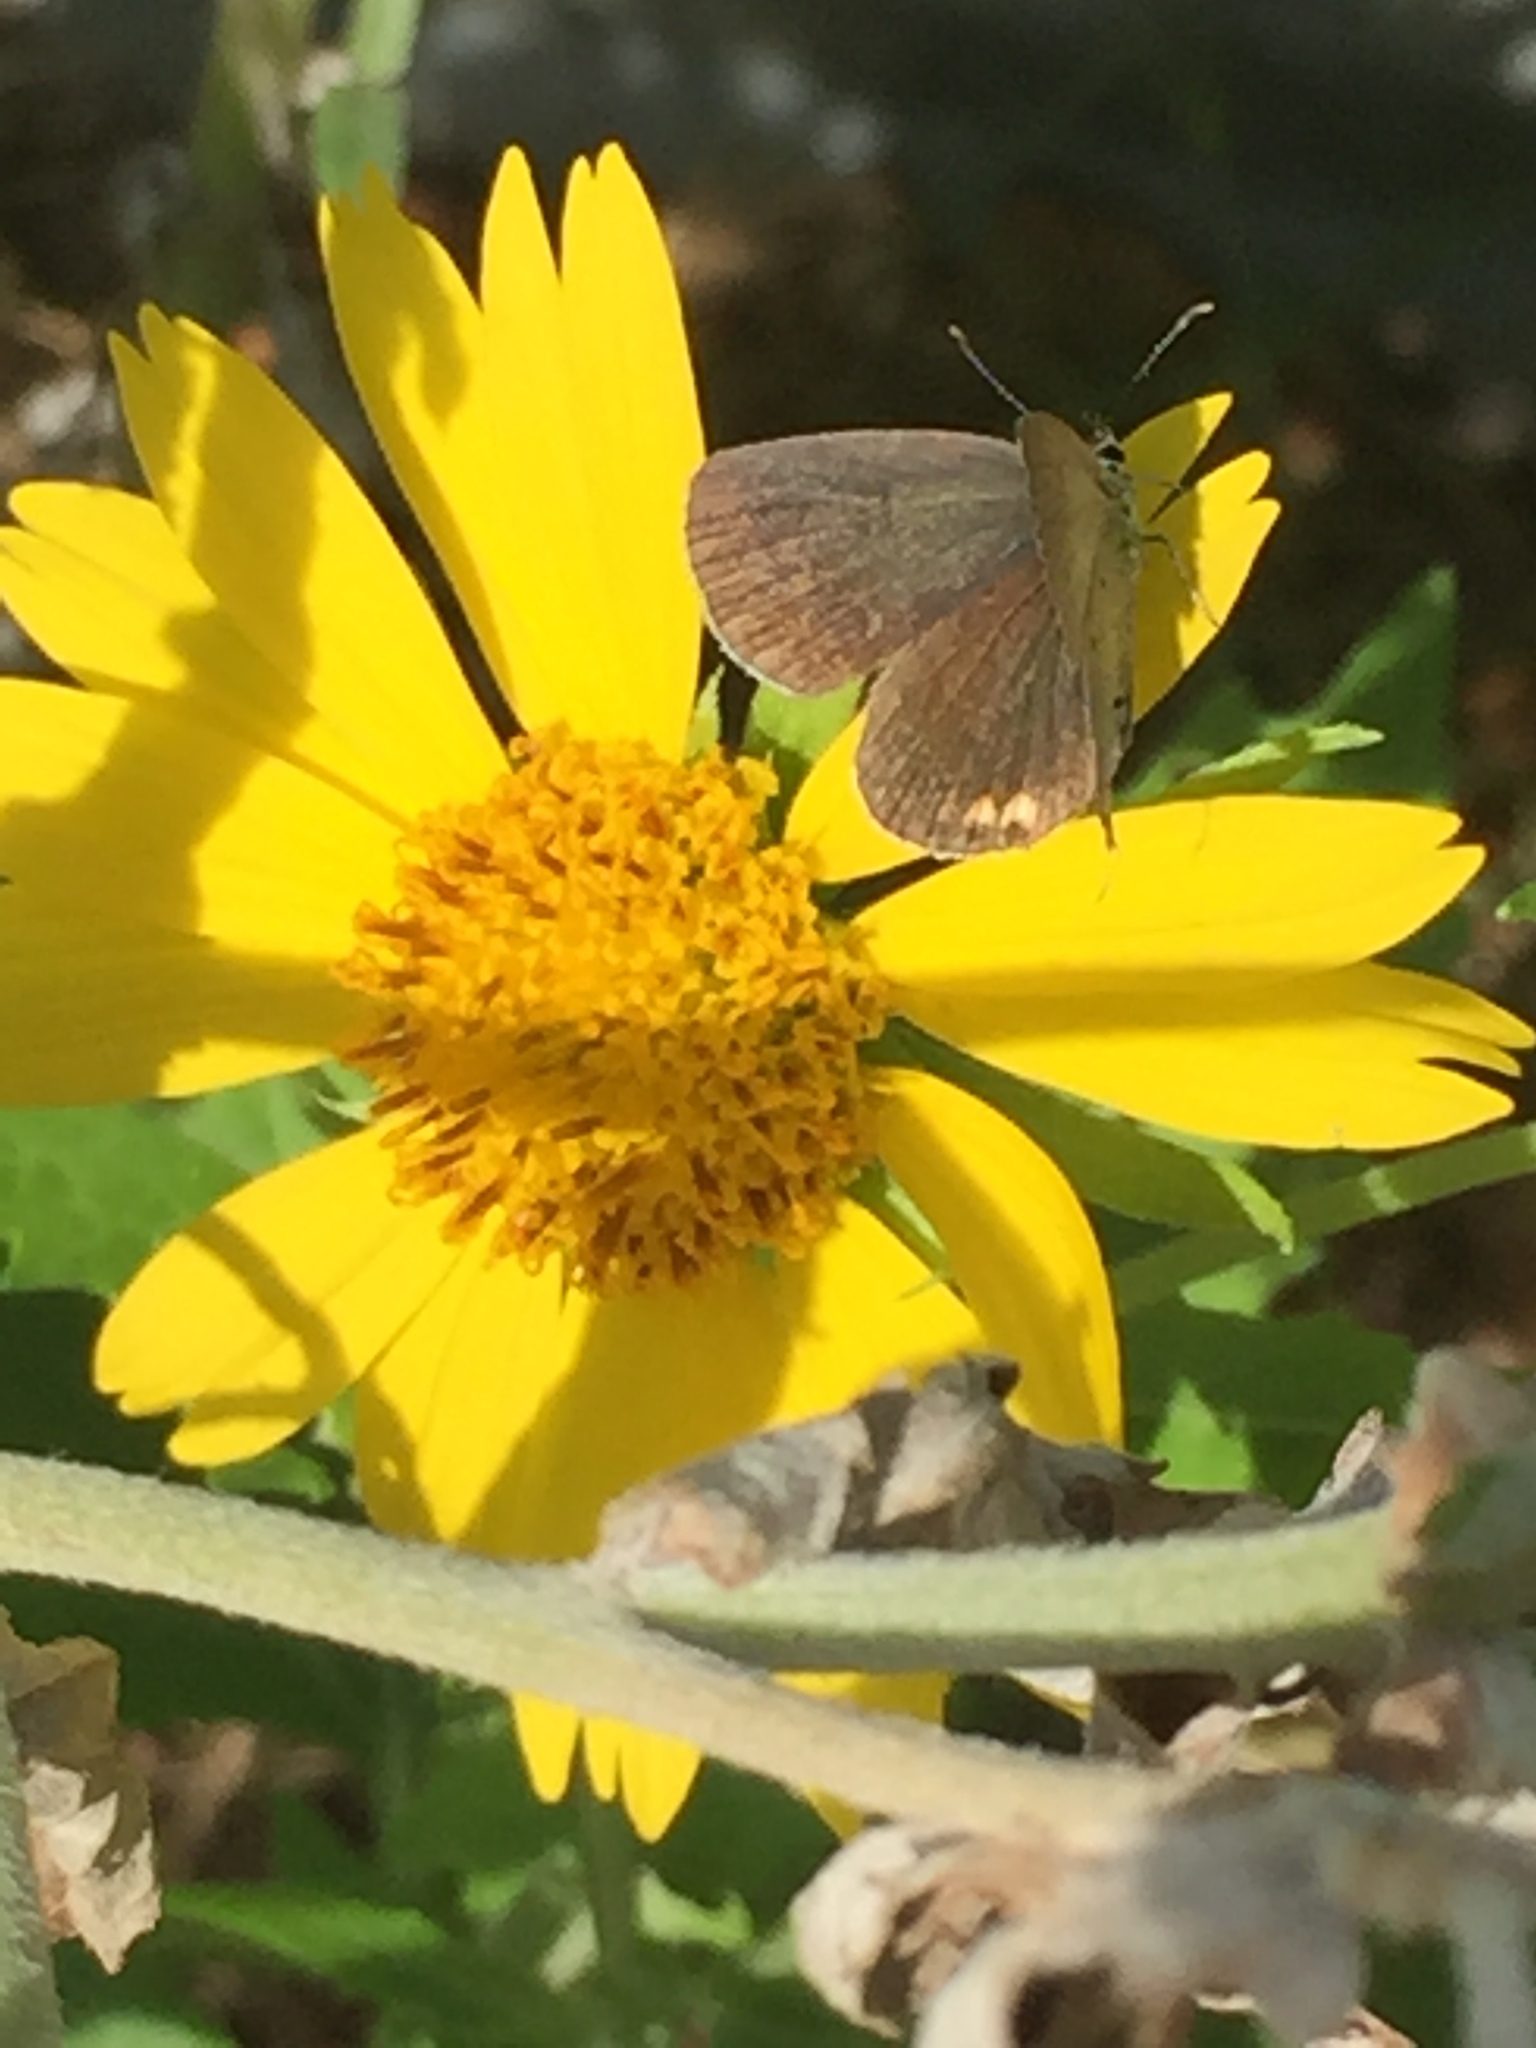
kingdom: Animalia
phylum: Arthropoda
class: Insecta
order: Lepidoptera
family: Lycaenidae
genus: Elkalyce
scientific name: Elkalyce comyntas
